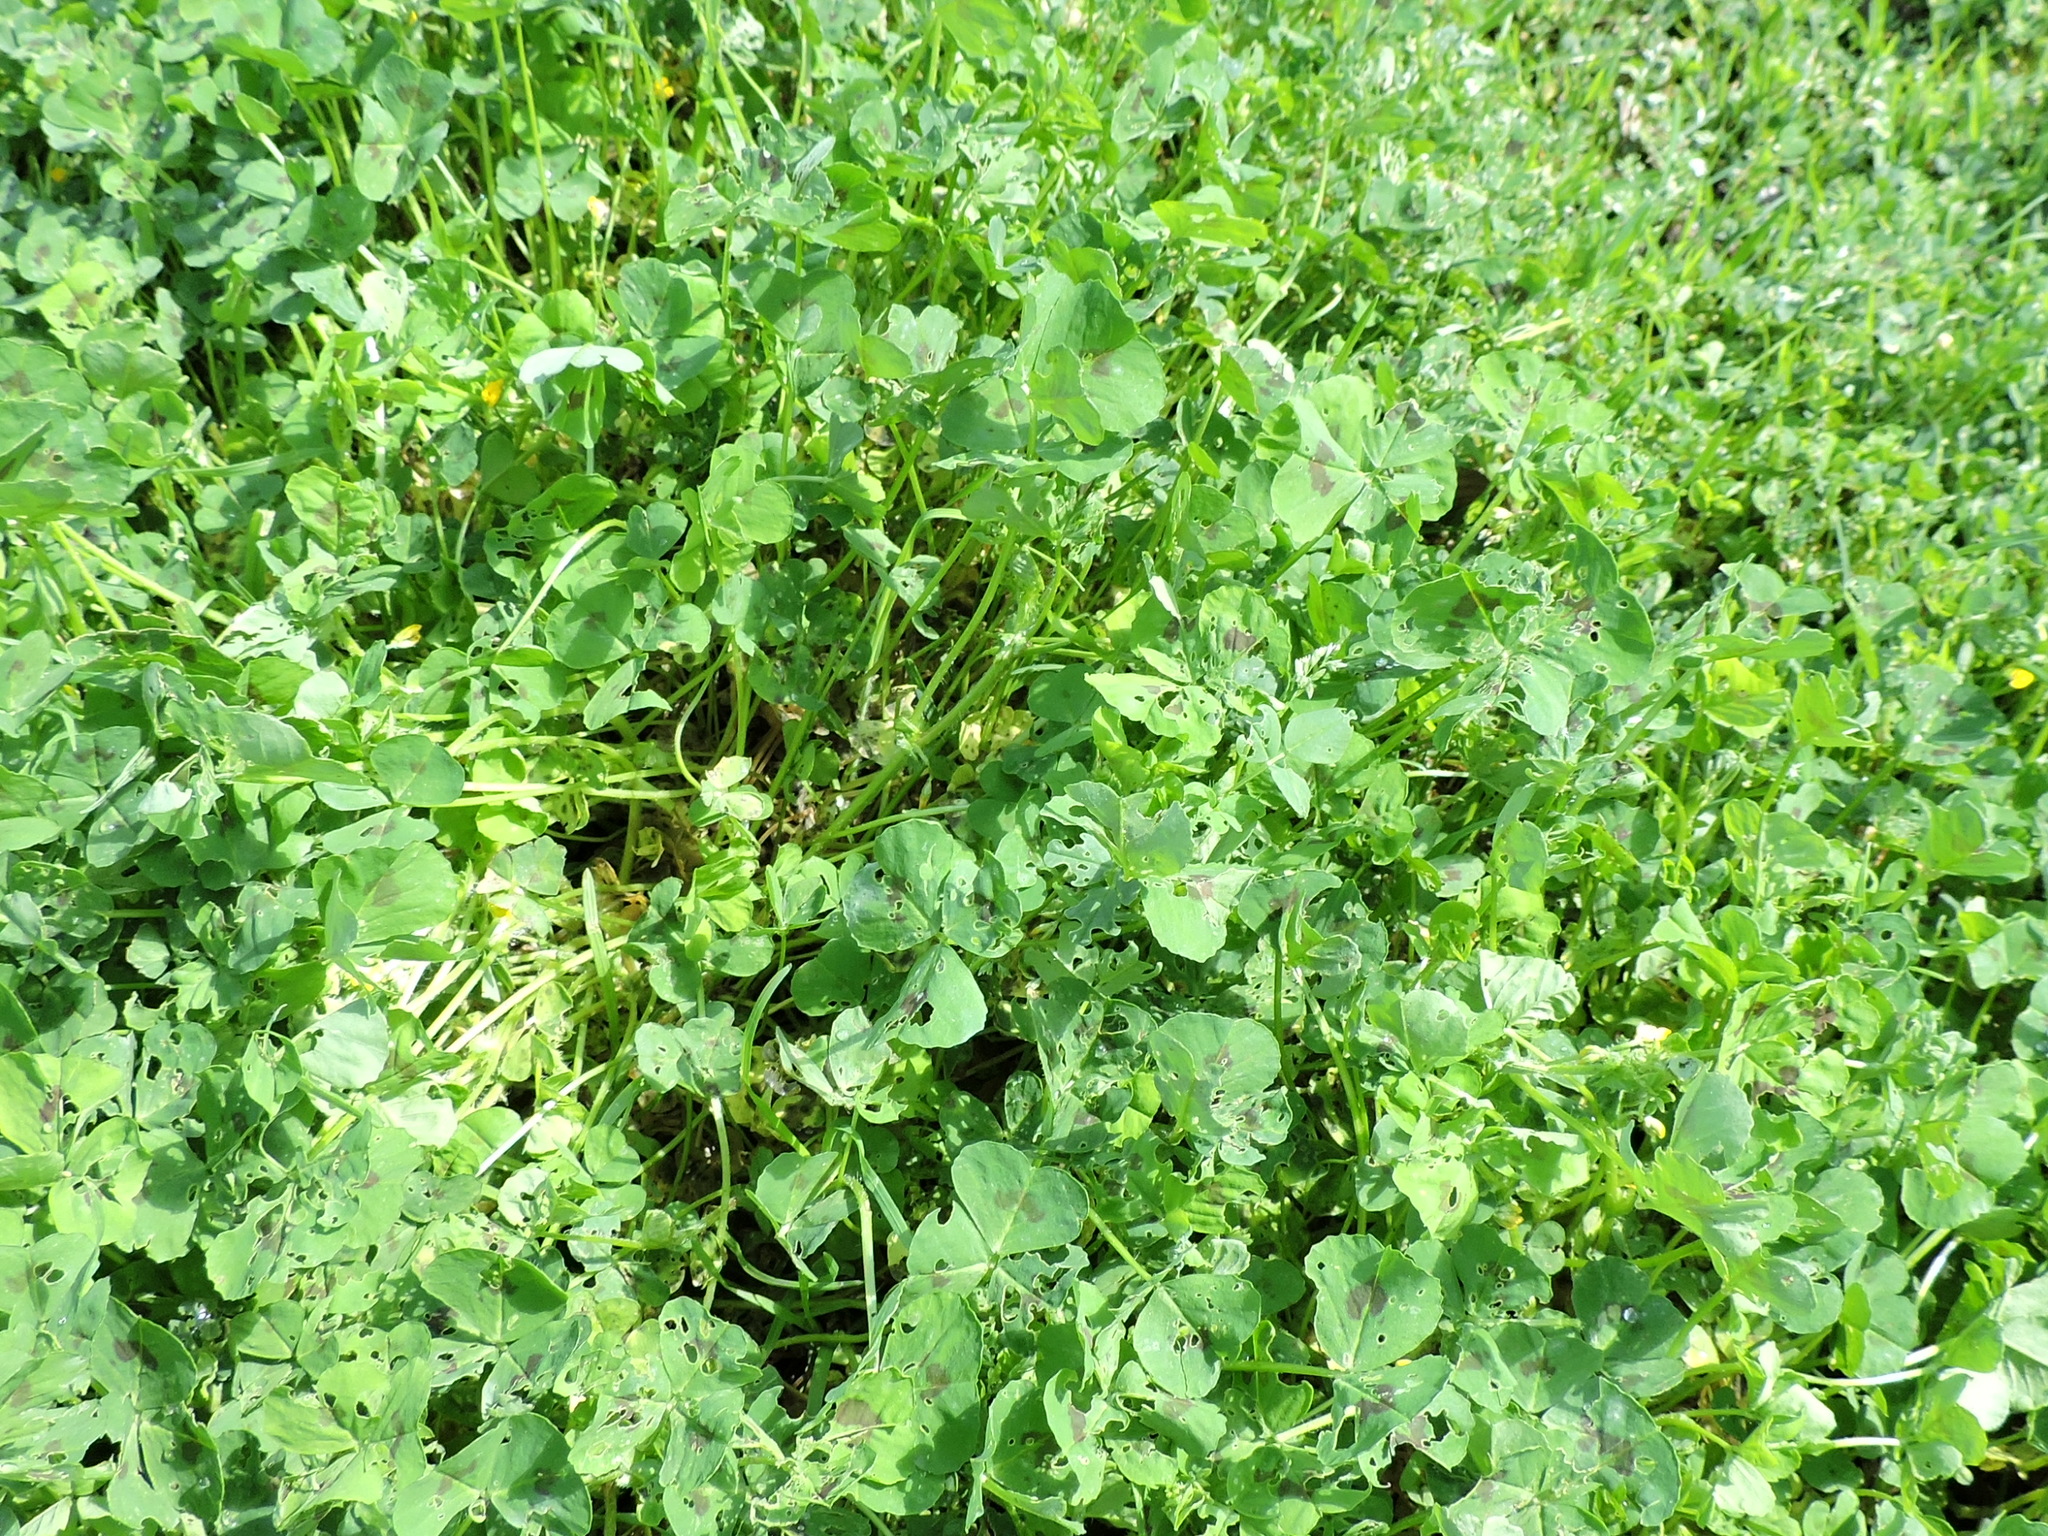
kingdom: Plantae
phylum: Tracheophyta
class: Magnoliopsida
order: Fabales
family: Fabaceae
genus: Medicago
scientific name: Medicago arabica
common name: Spotted medick
